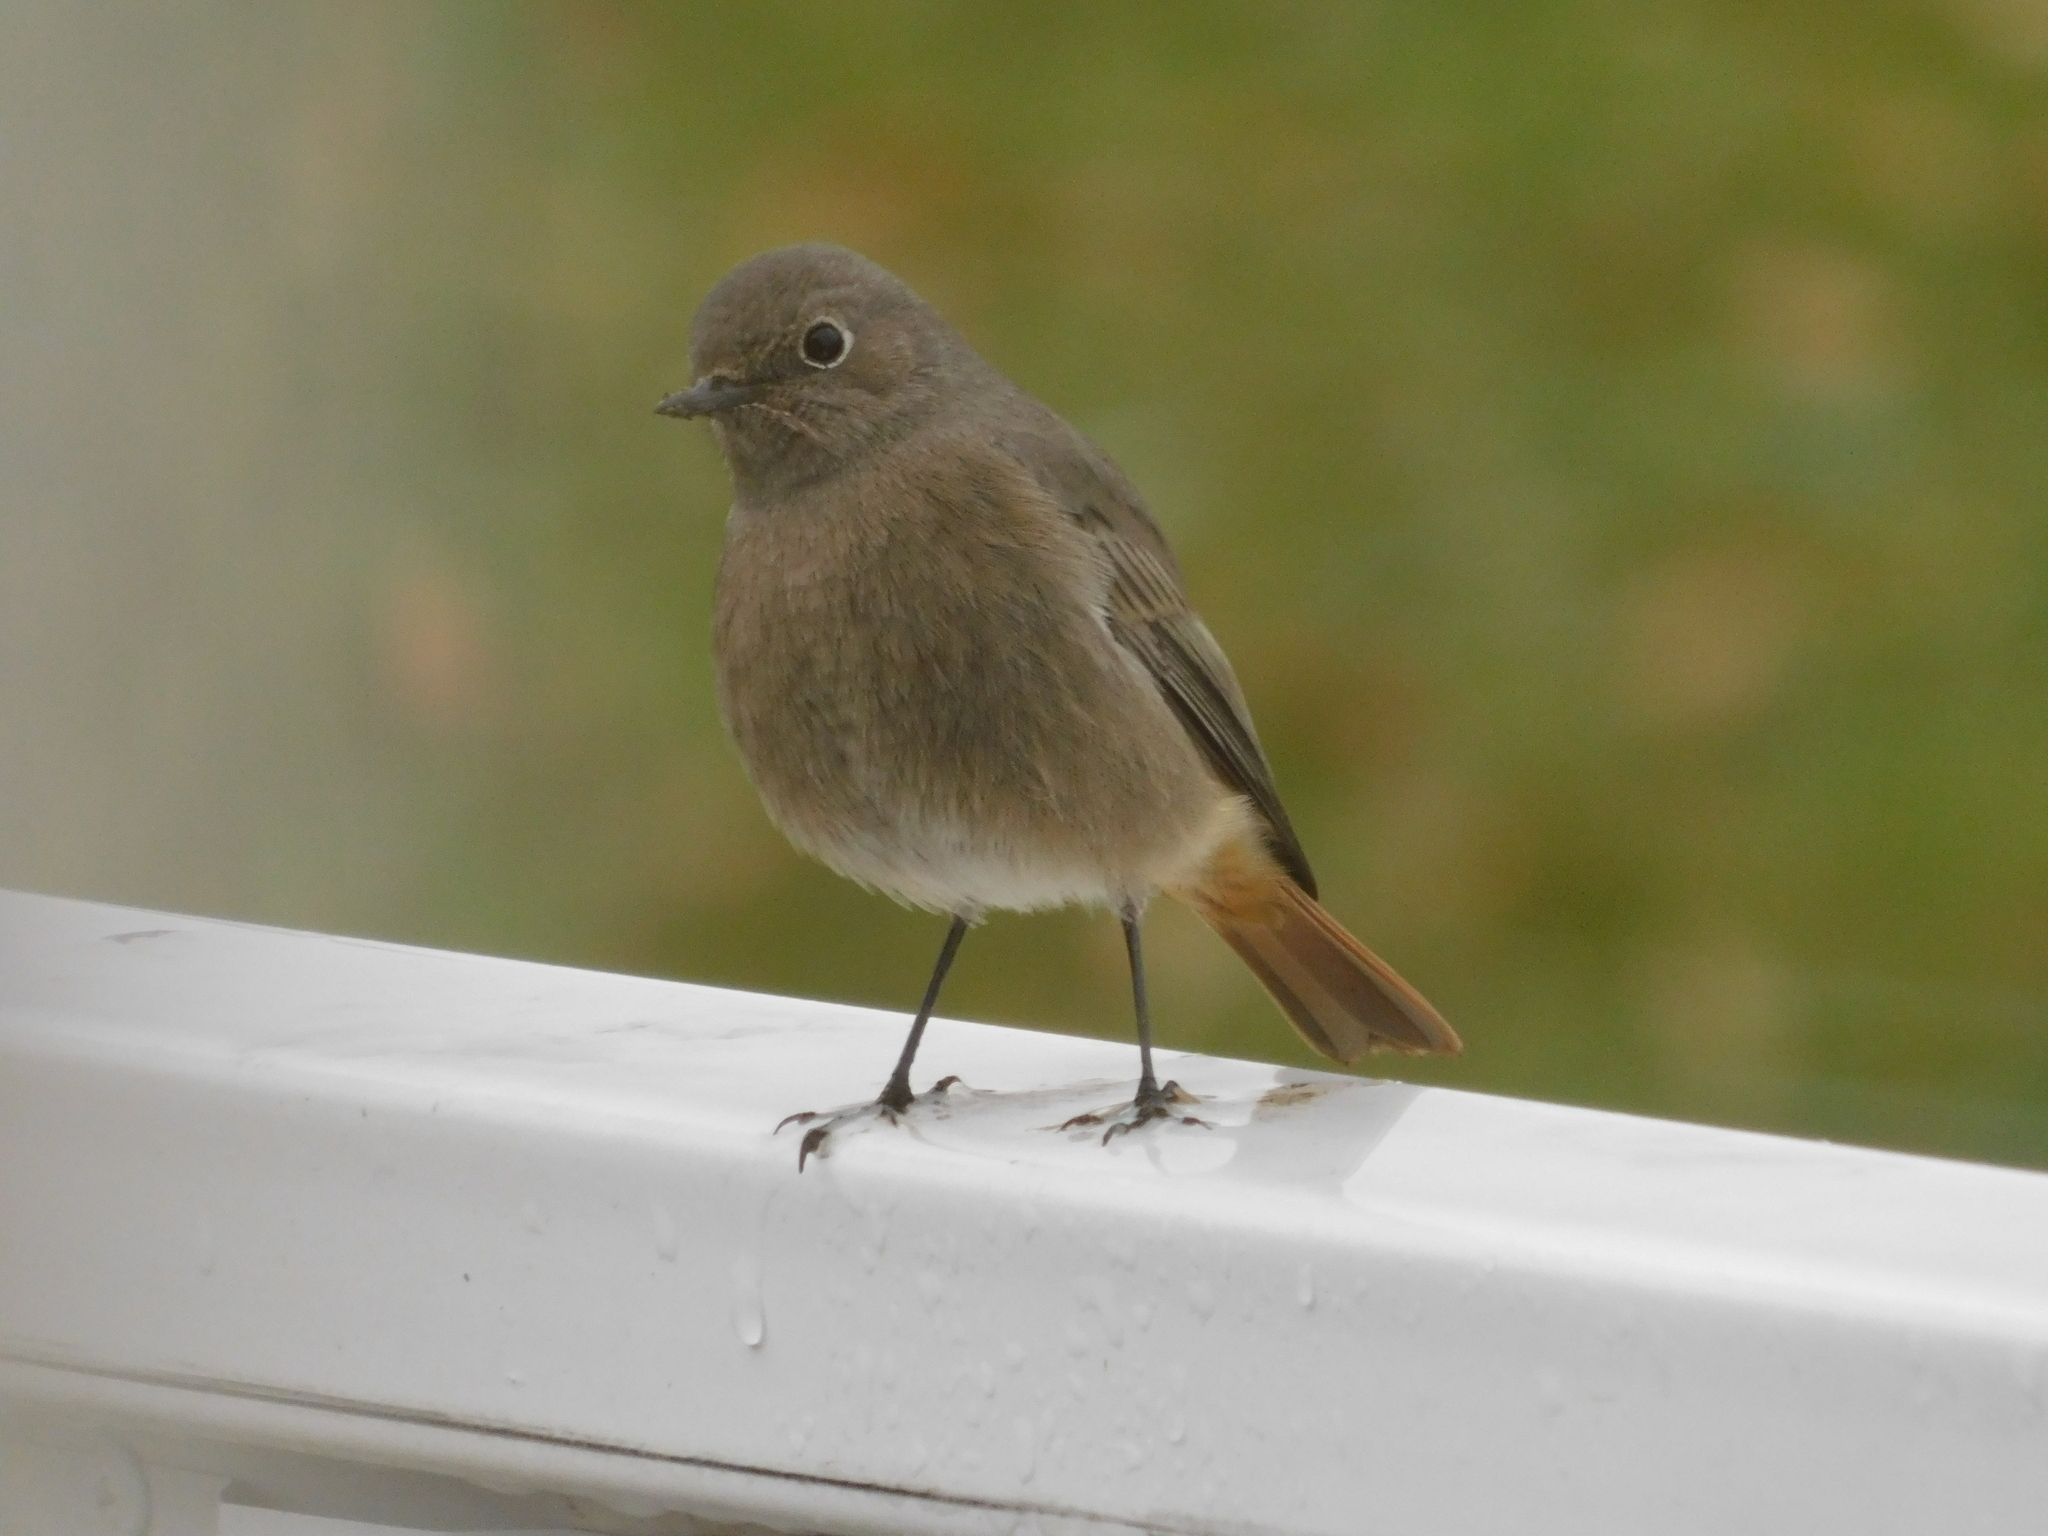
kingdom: Animalia
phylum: Chordata
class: Aves
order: Passeriformes
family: Muscicapidae
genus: Phoenicurus
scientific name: Phoenicurus ochruros
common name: Black redstart
